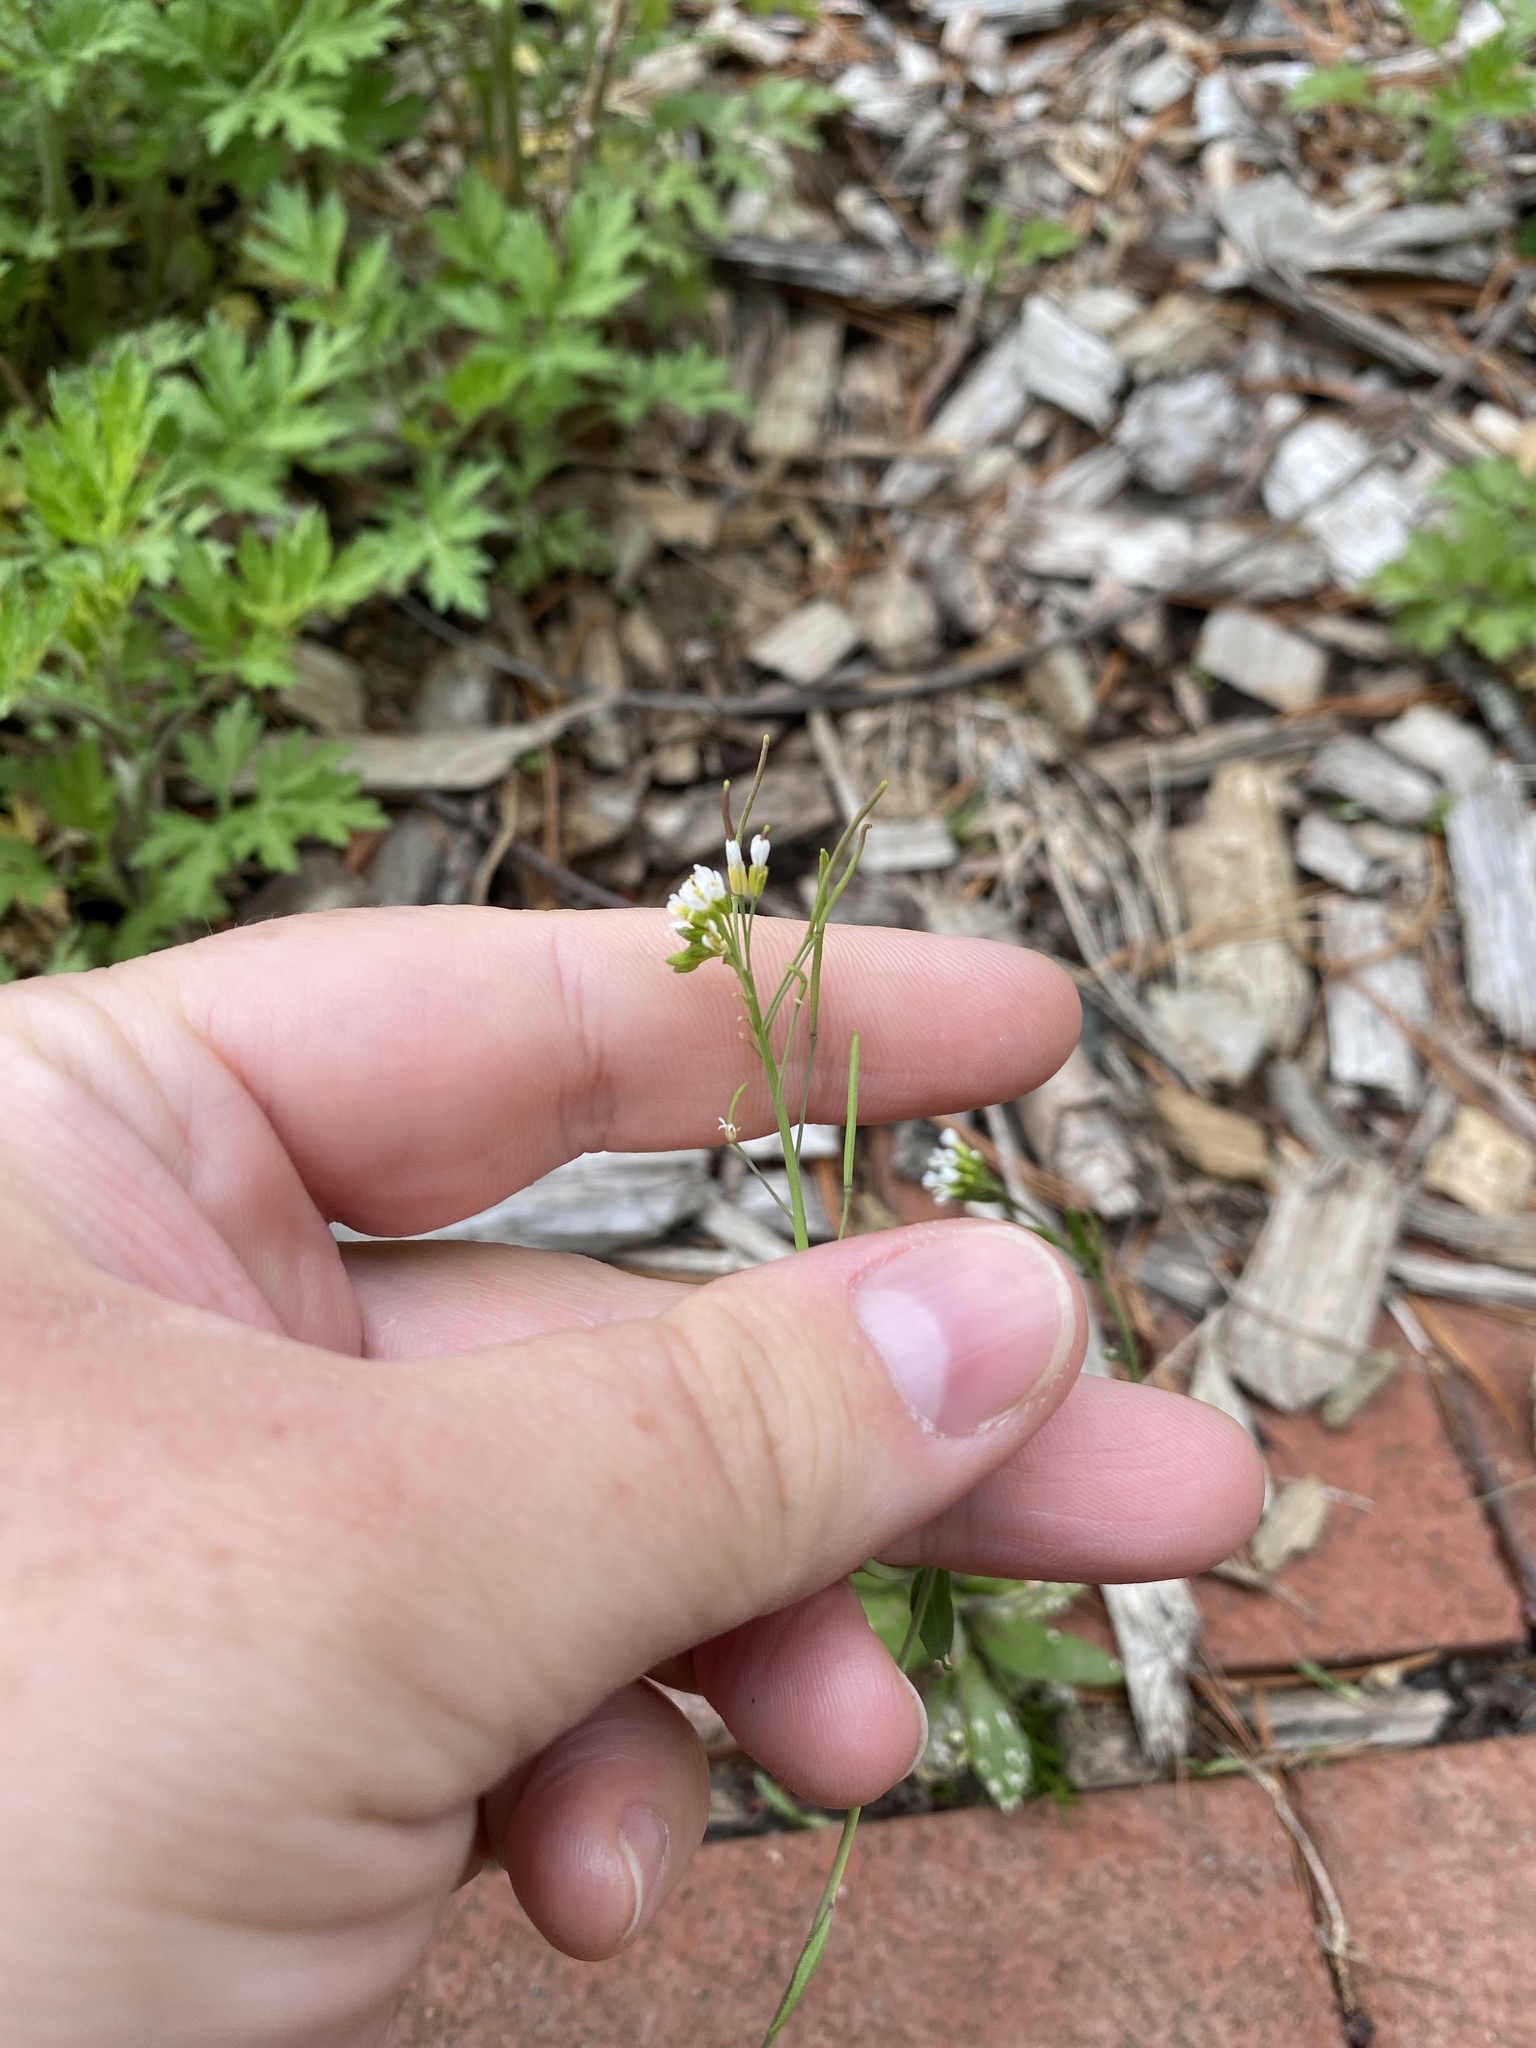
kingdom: Plantae
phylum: Tracheophyta
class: Magnoliopsida
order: Brassicales
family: Brassicaceae
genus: Arabidopsis
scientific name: Arabidopsis thaliana
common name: Thale cress
